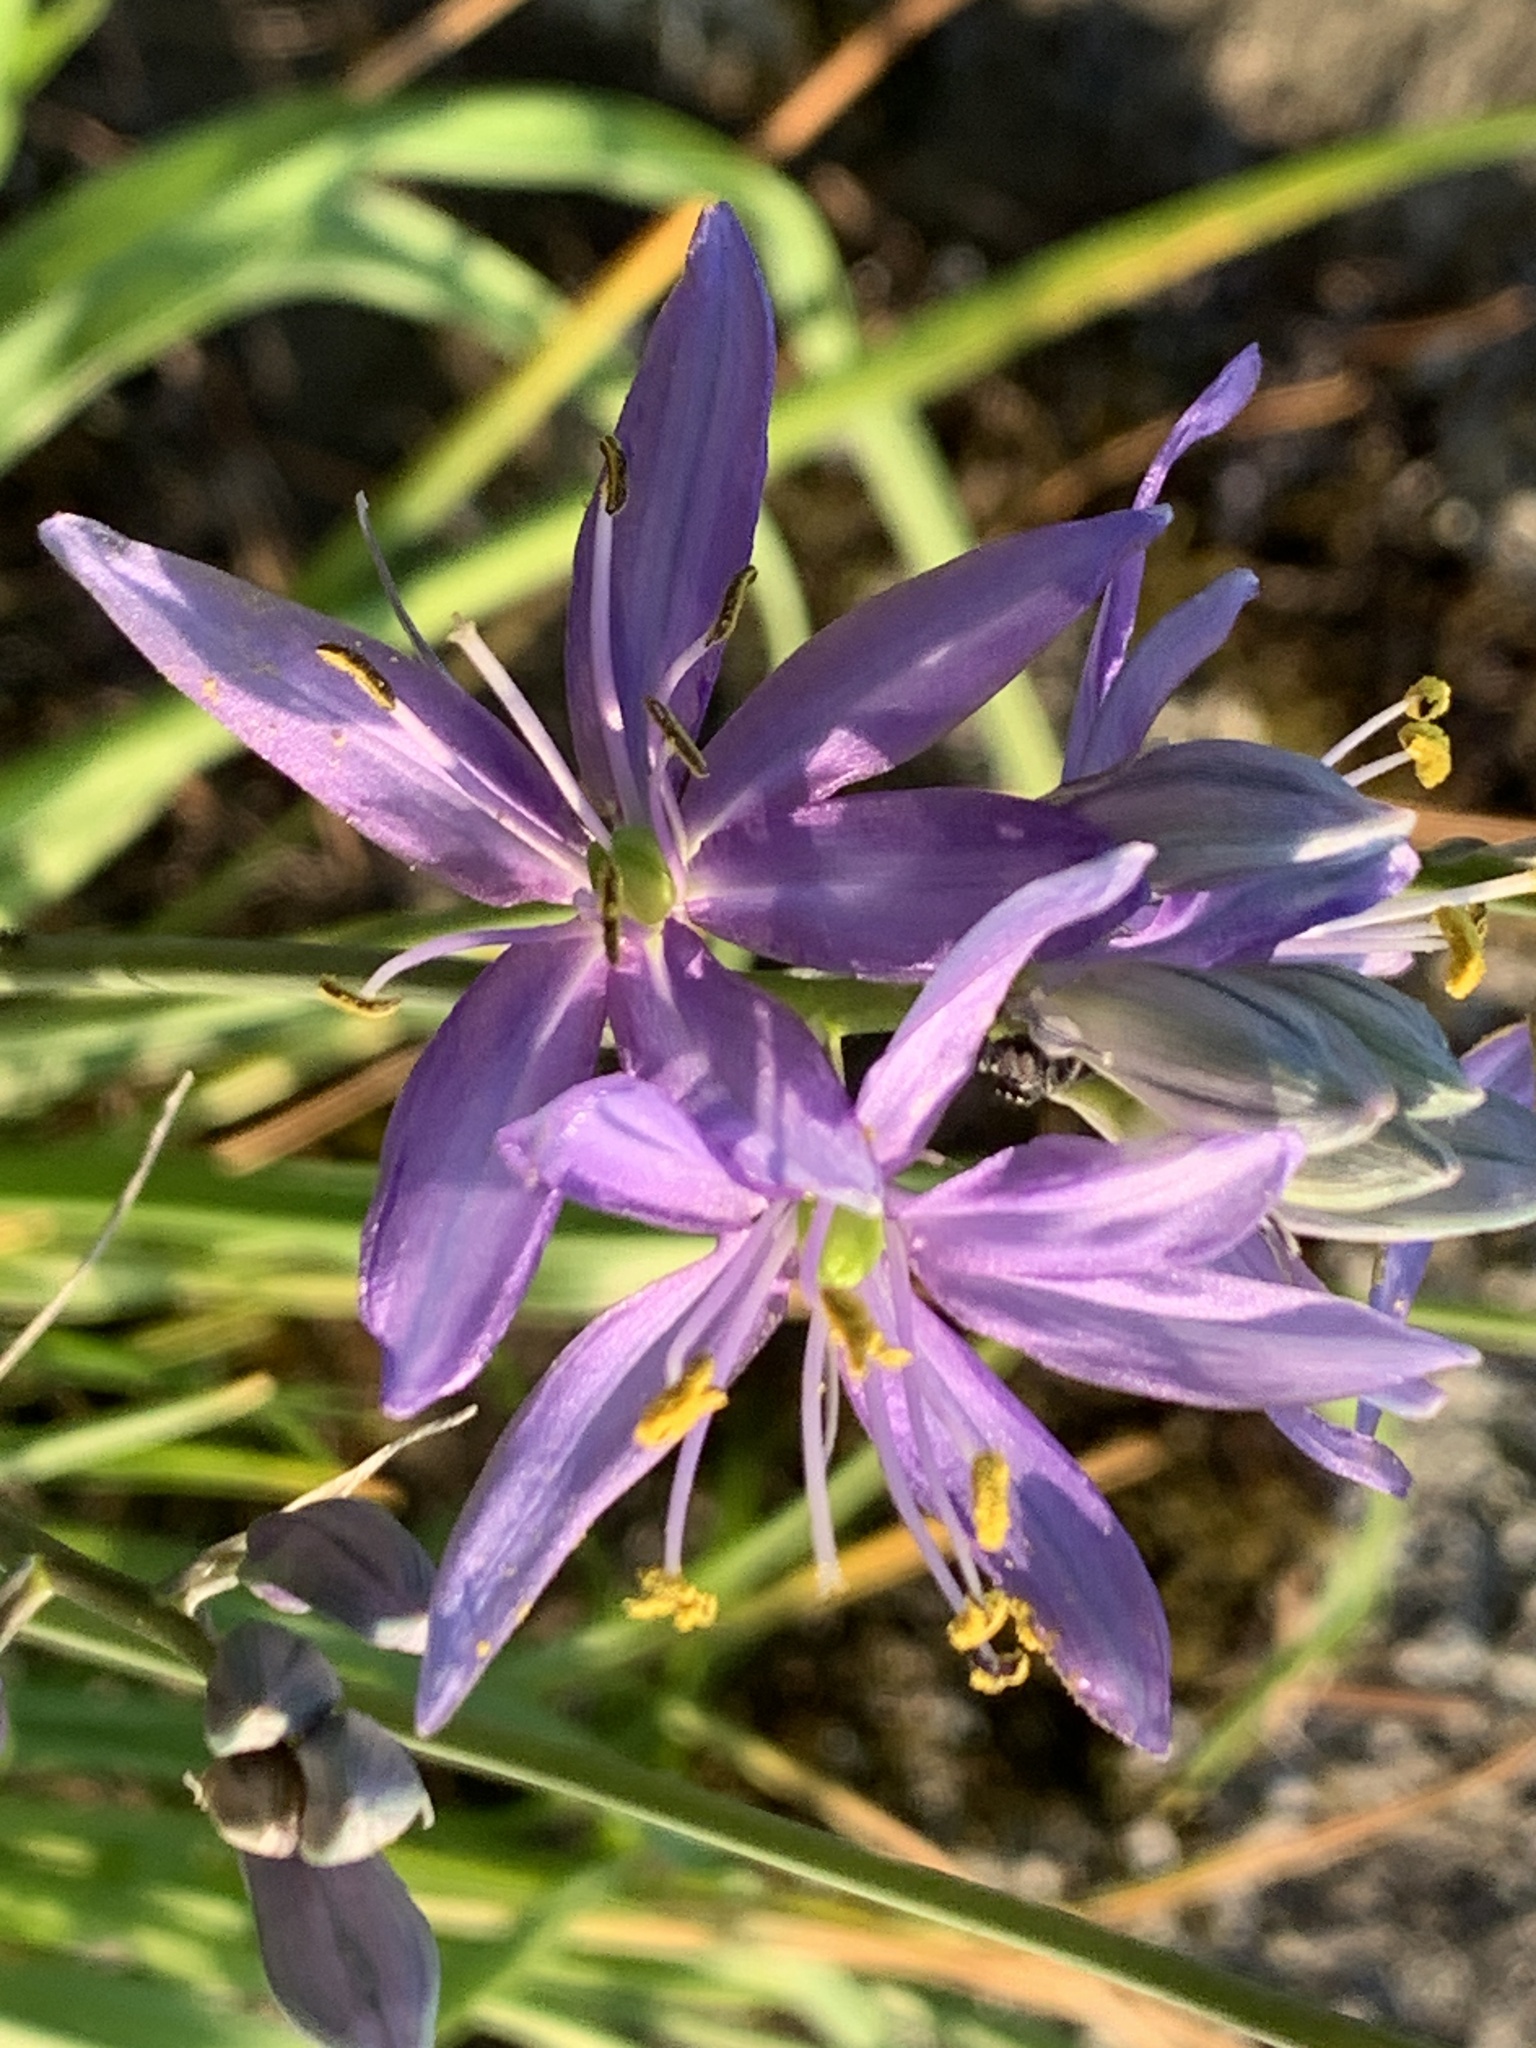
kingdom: Plantae
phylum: Tracheophyta
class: Liliopsida
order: Asparagales
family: Asparagaceae
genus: Camassia
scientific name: Camassia quamash
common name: Common camas
